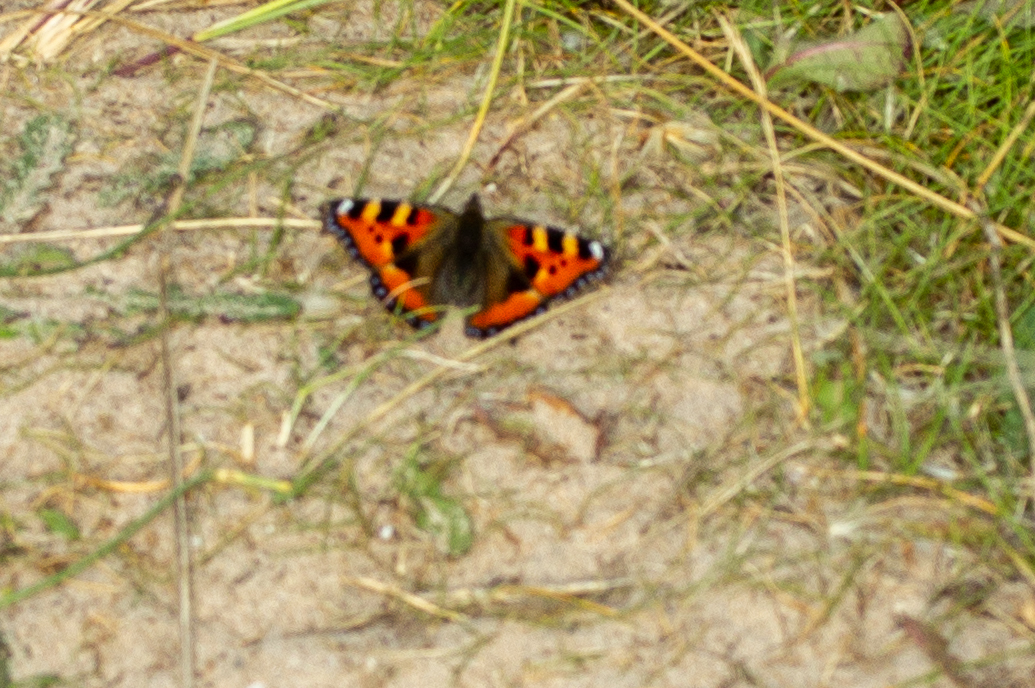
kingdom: Animalia
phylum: Arthropoda
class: Insecta
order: Lepidoptera
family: Nymphalidae
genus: Aglais
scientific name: Aglais urticae
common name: Small tortoiseshell
